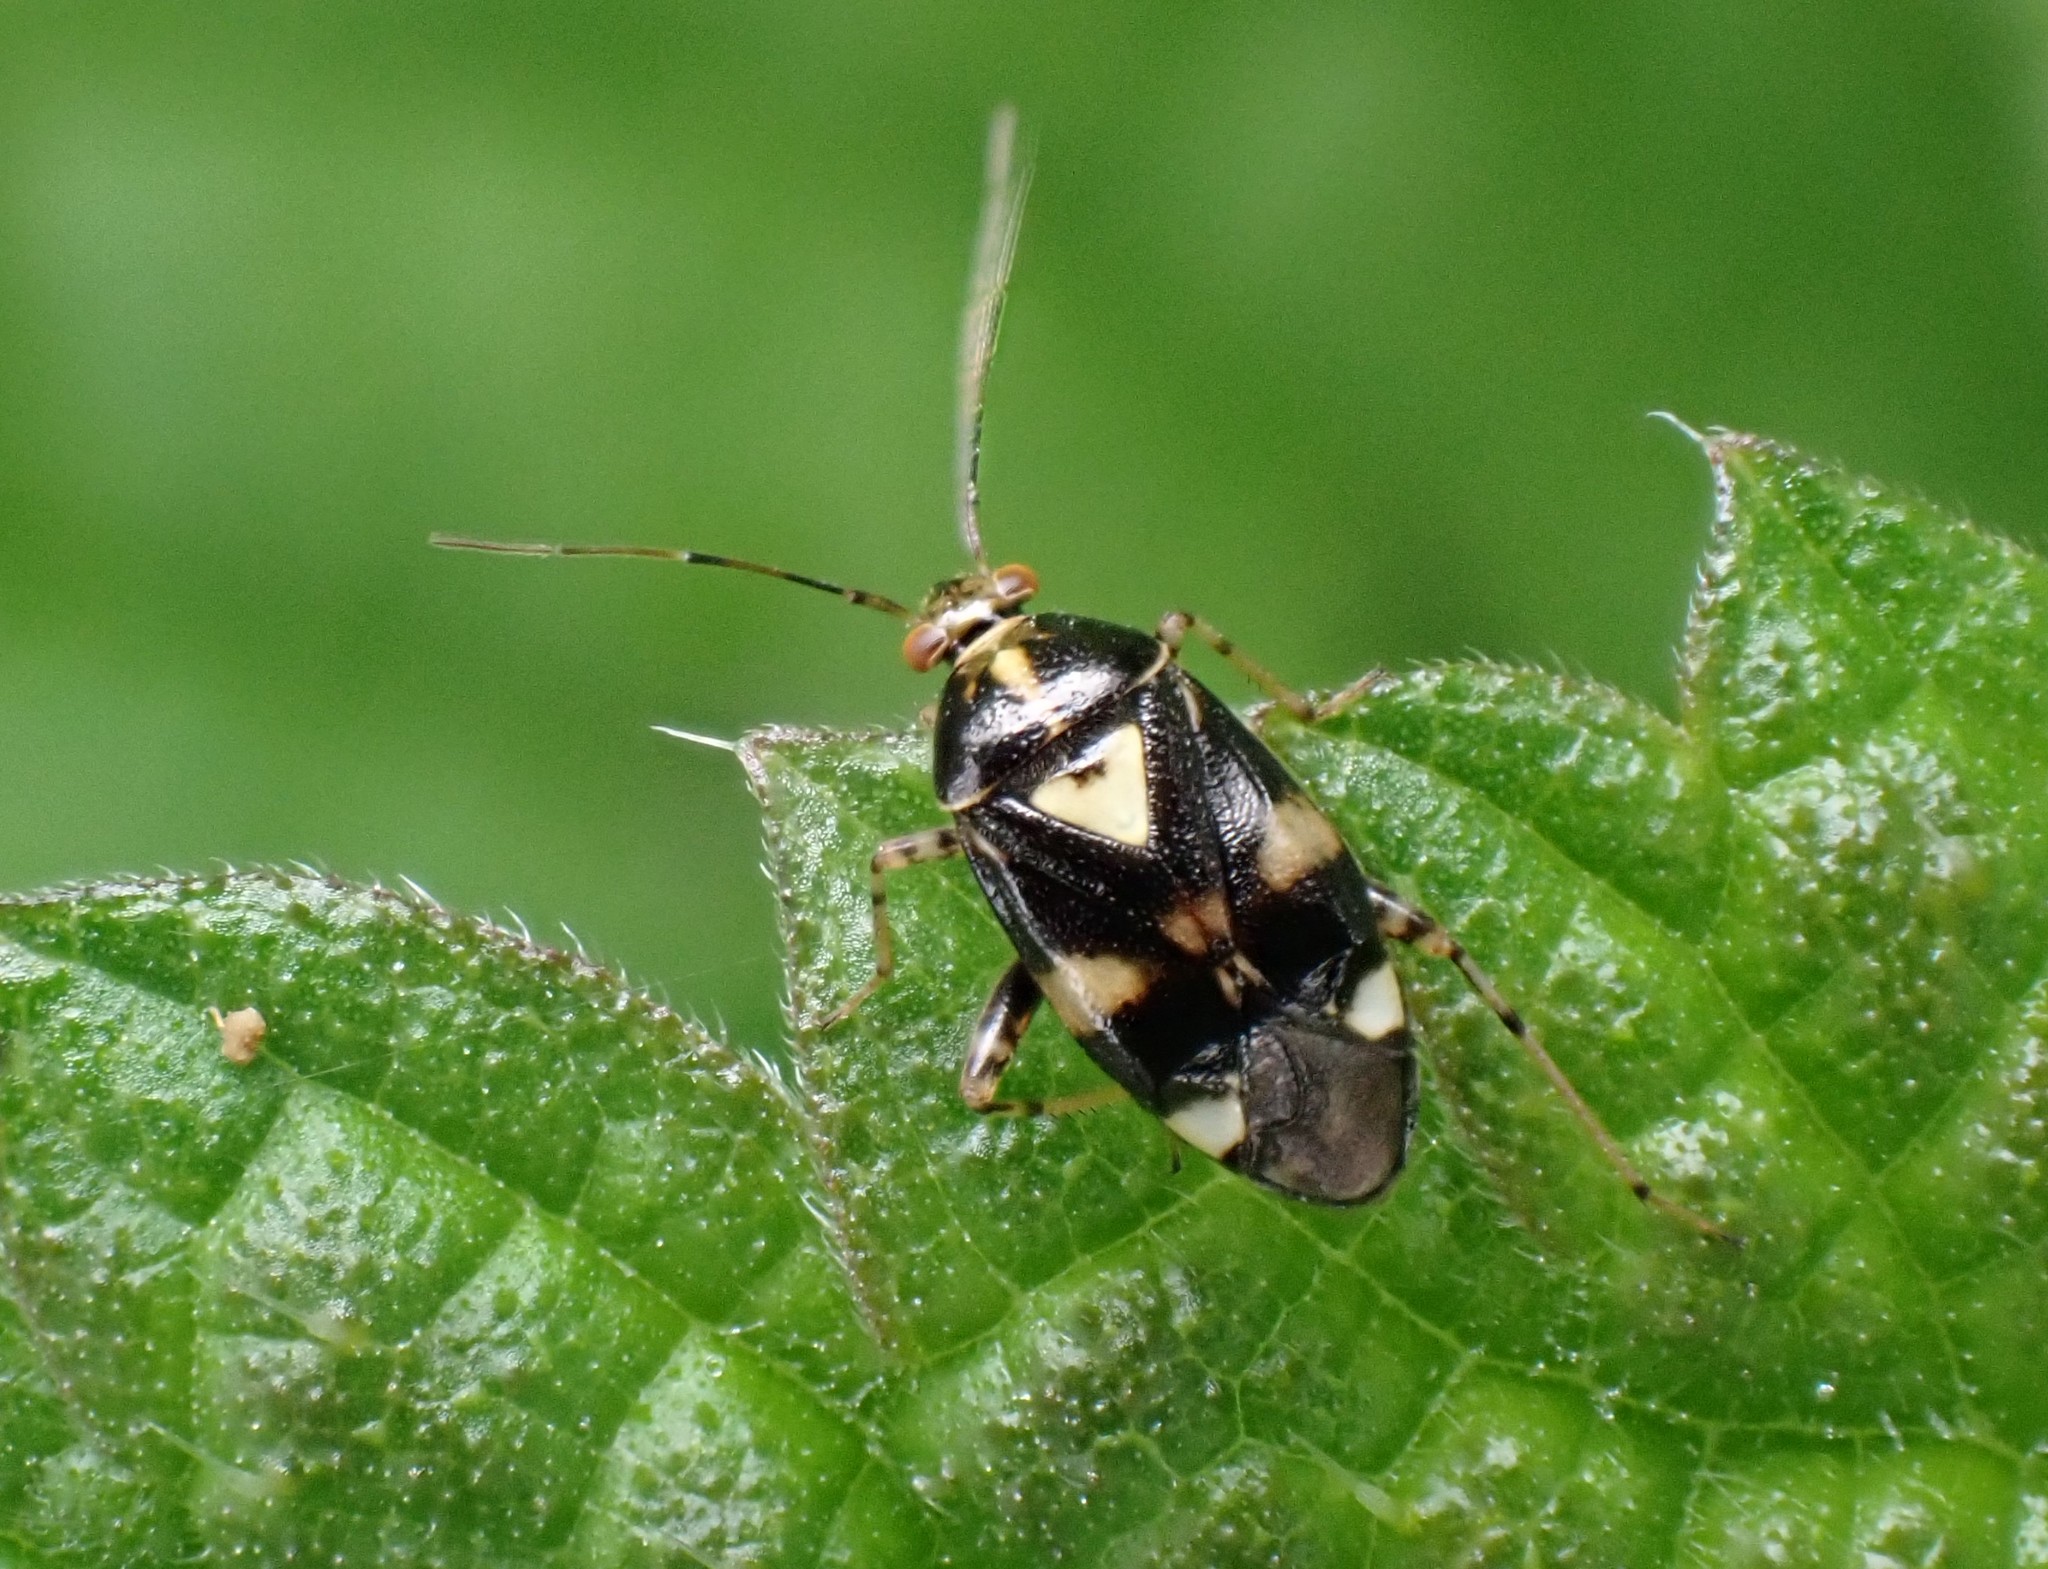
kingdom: Animalia
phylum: Arthropoda
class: Insecta
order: Hemiptera
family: Miridae
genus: Liocoris
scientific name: Liocoris tripustulatus
